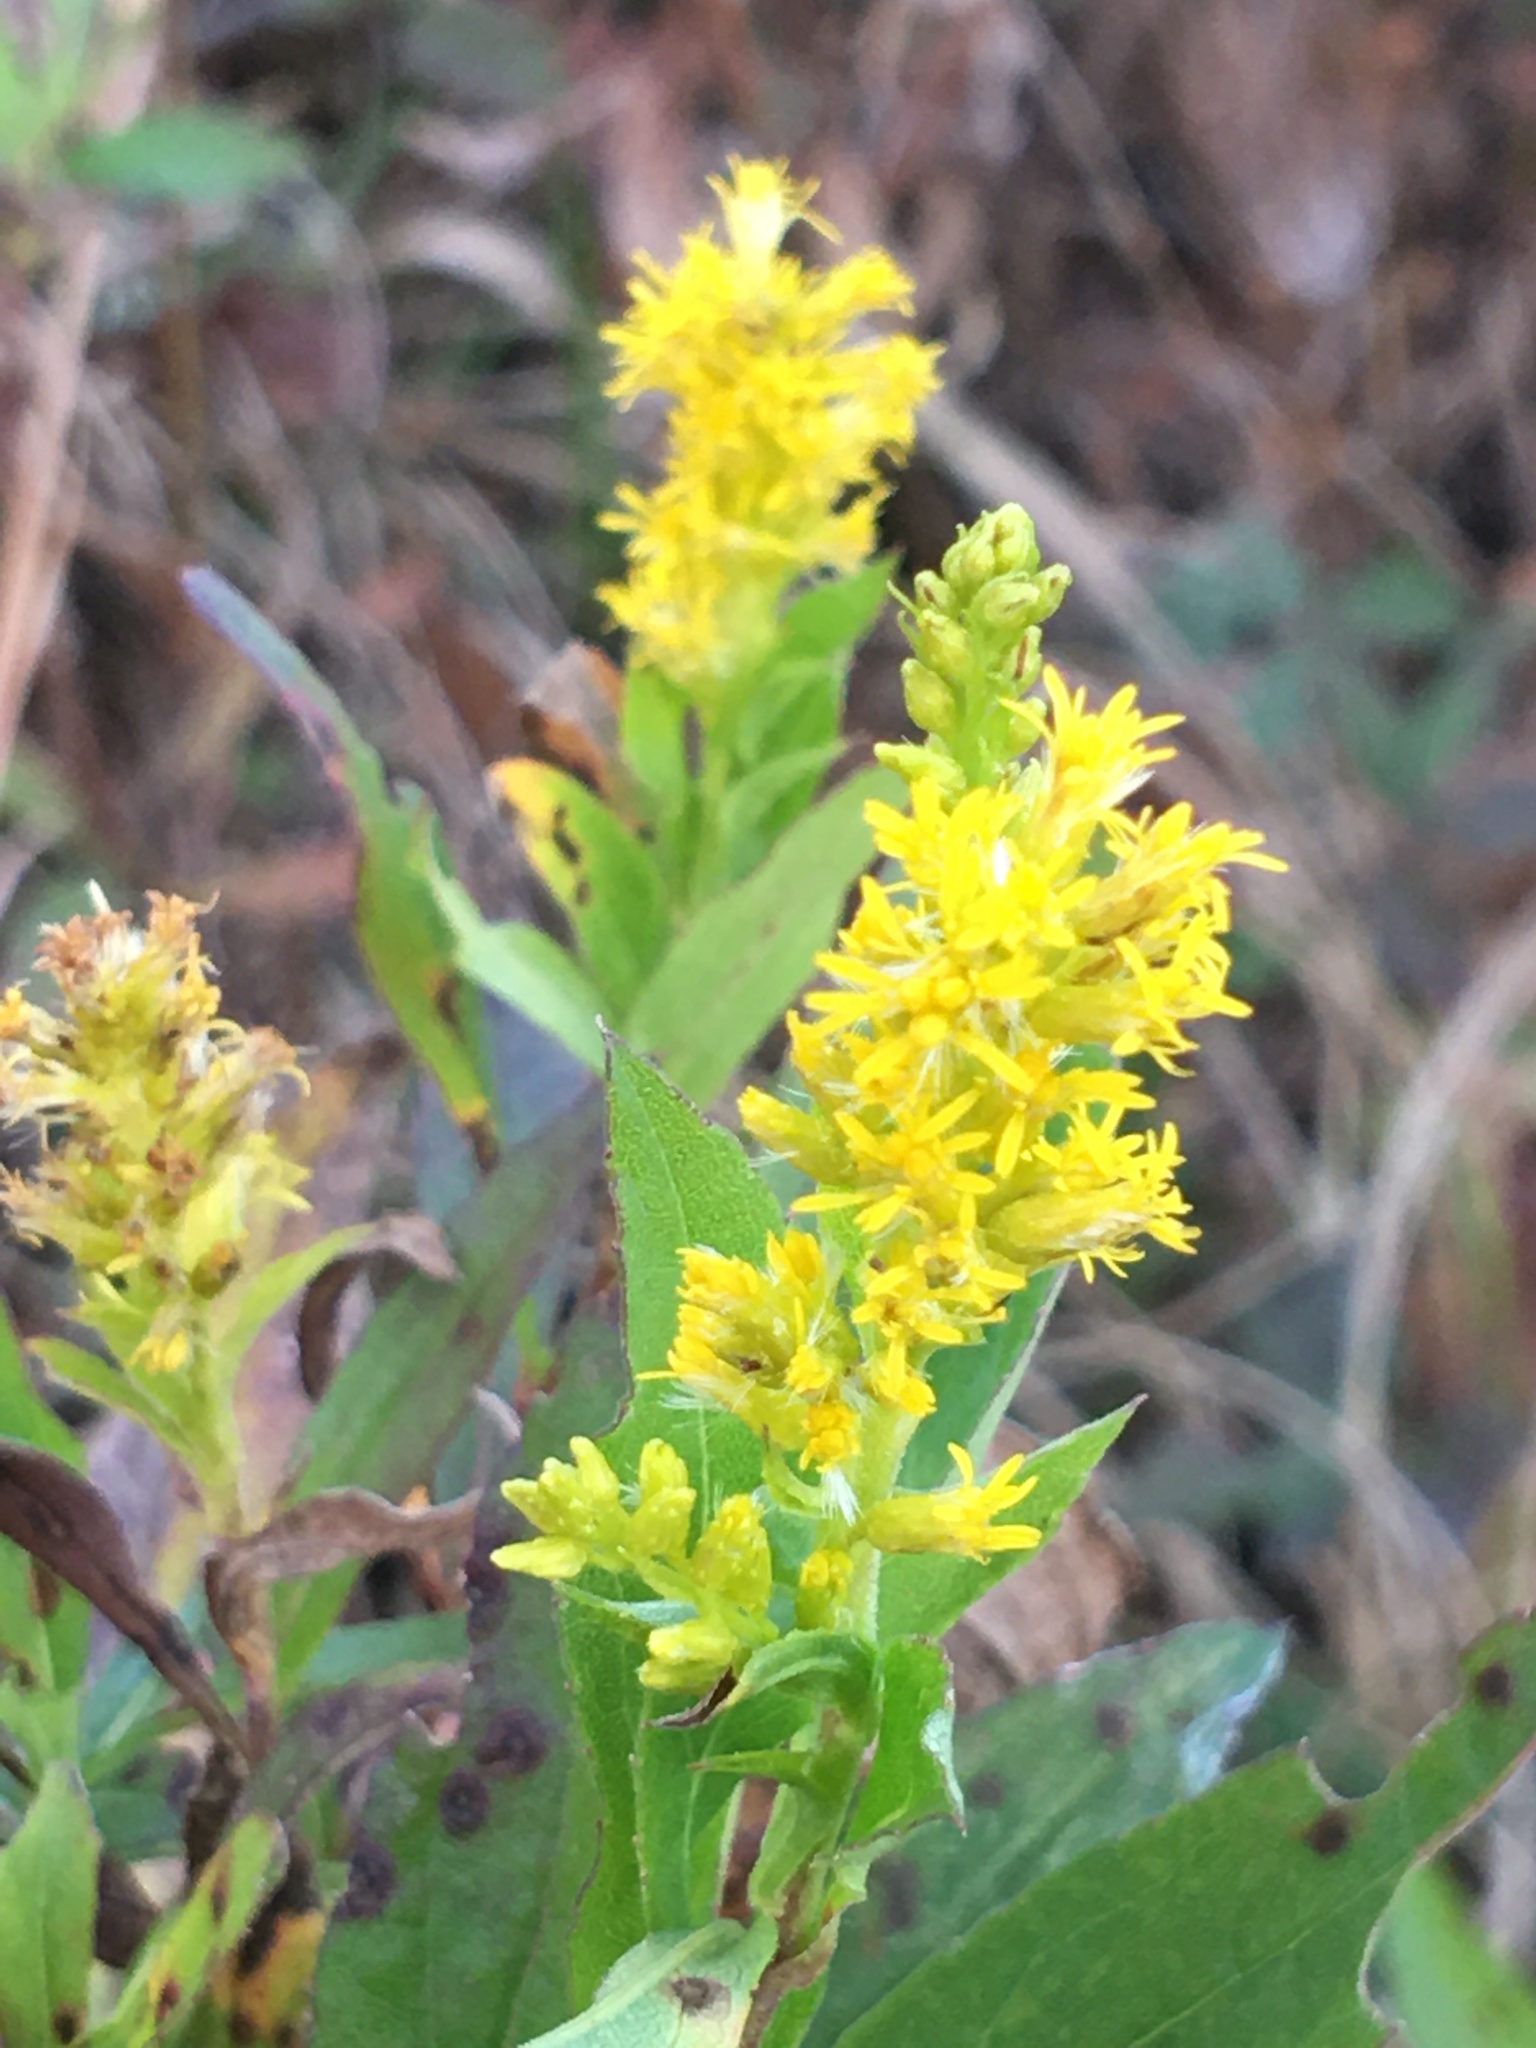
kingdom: Plantae
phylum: Tracheophyta
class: Magnoliopsida
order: Asterales
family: Asteraceae
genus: Solidago
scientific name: Solidago altissima
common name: Late goldenrod
